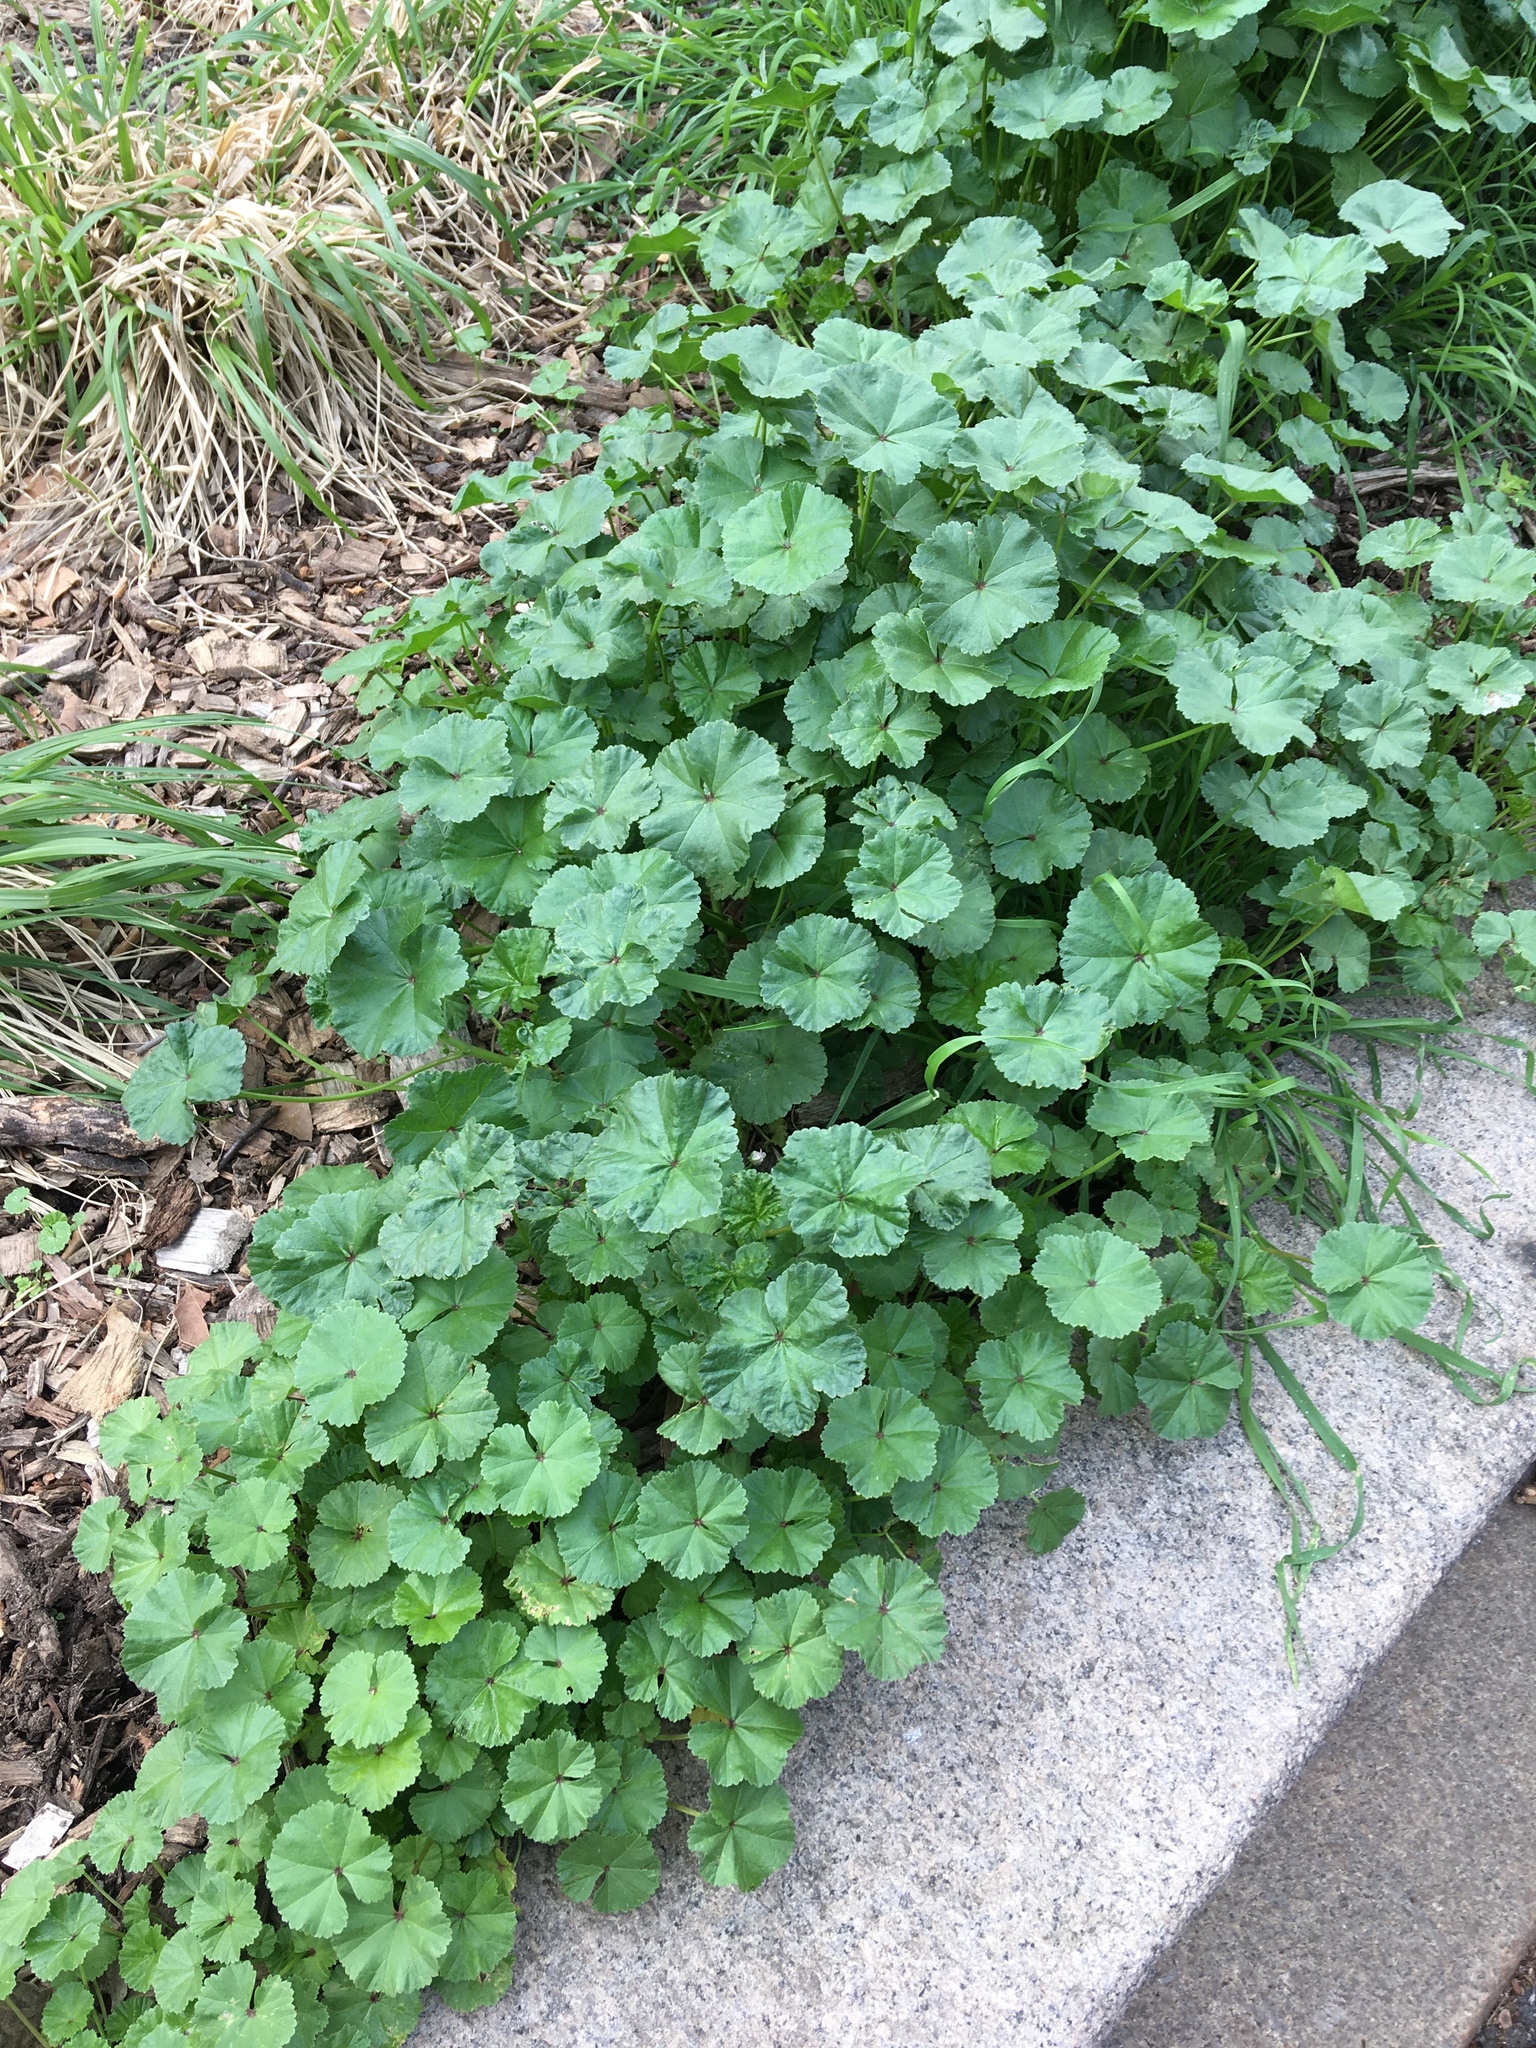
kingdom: Plantae
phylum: Tracheophyta
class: Magnoliopsida
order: Malvales
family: Malvaceae
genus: Malva
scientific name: Malva neglecta
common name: Common mallow
